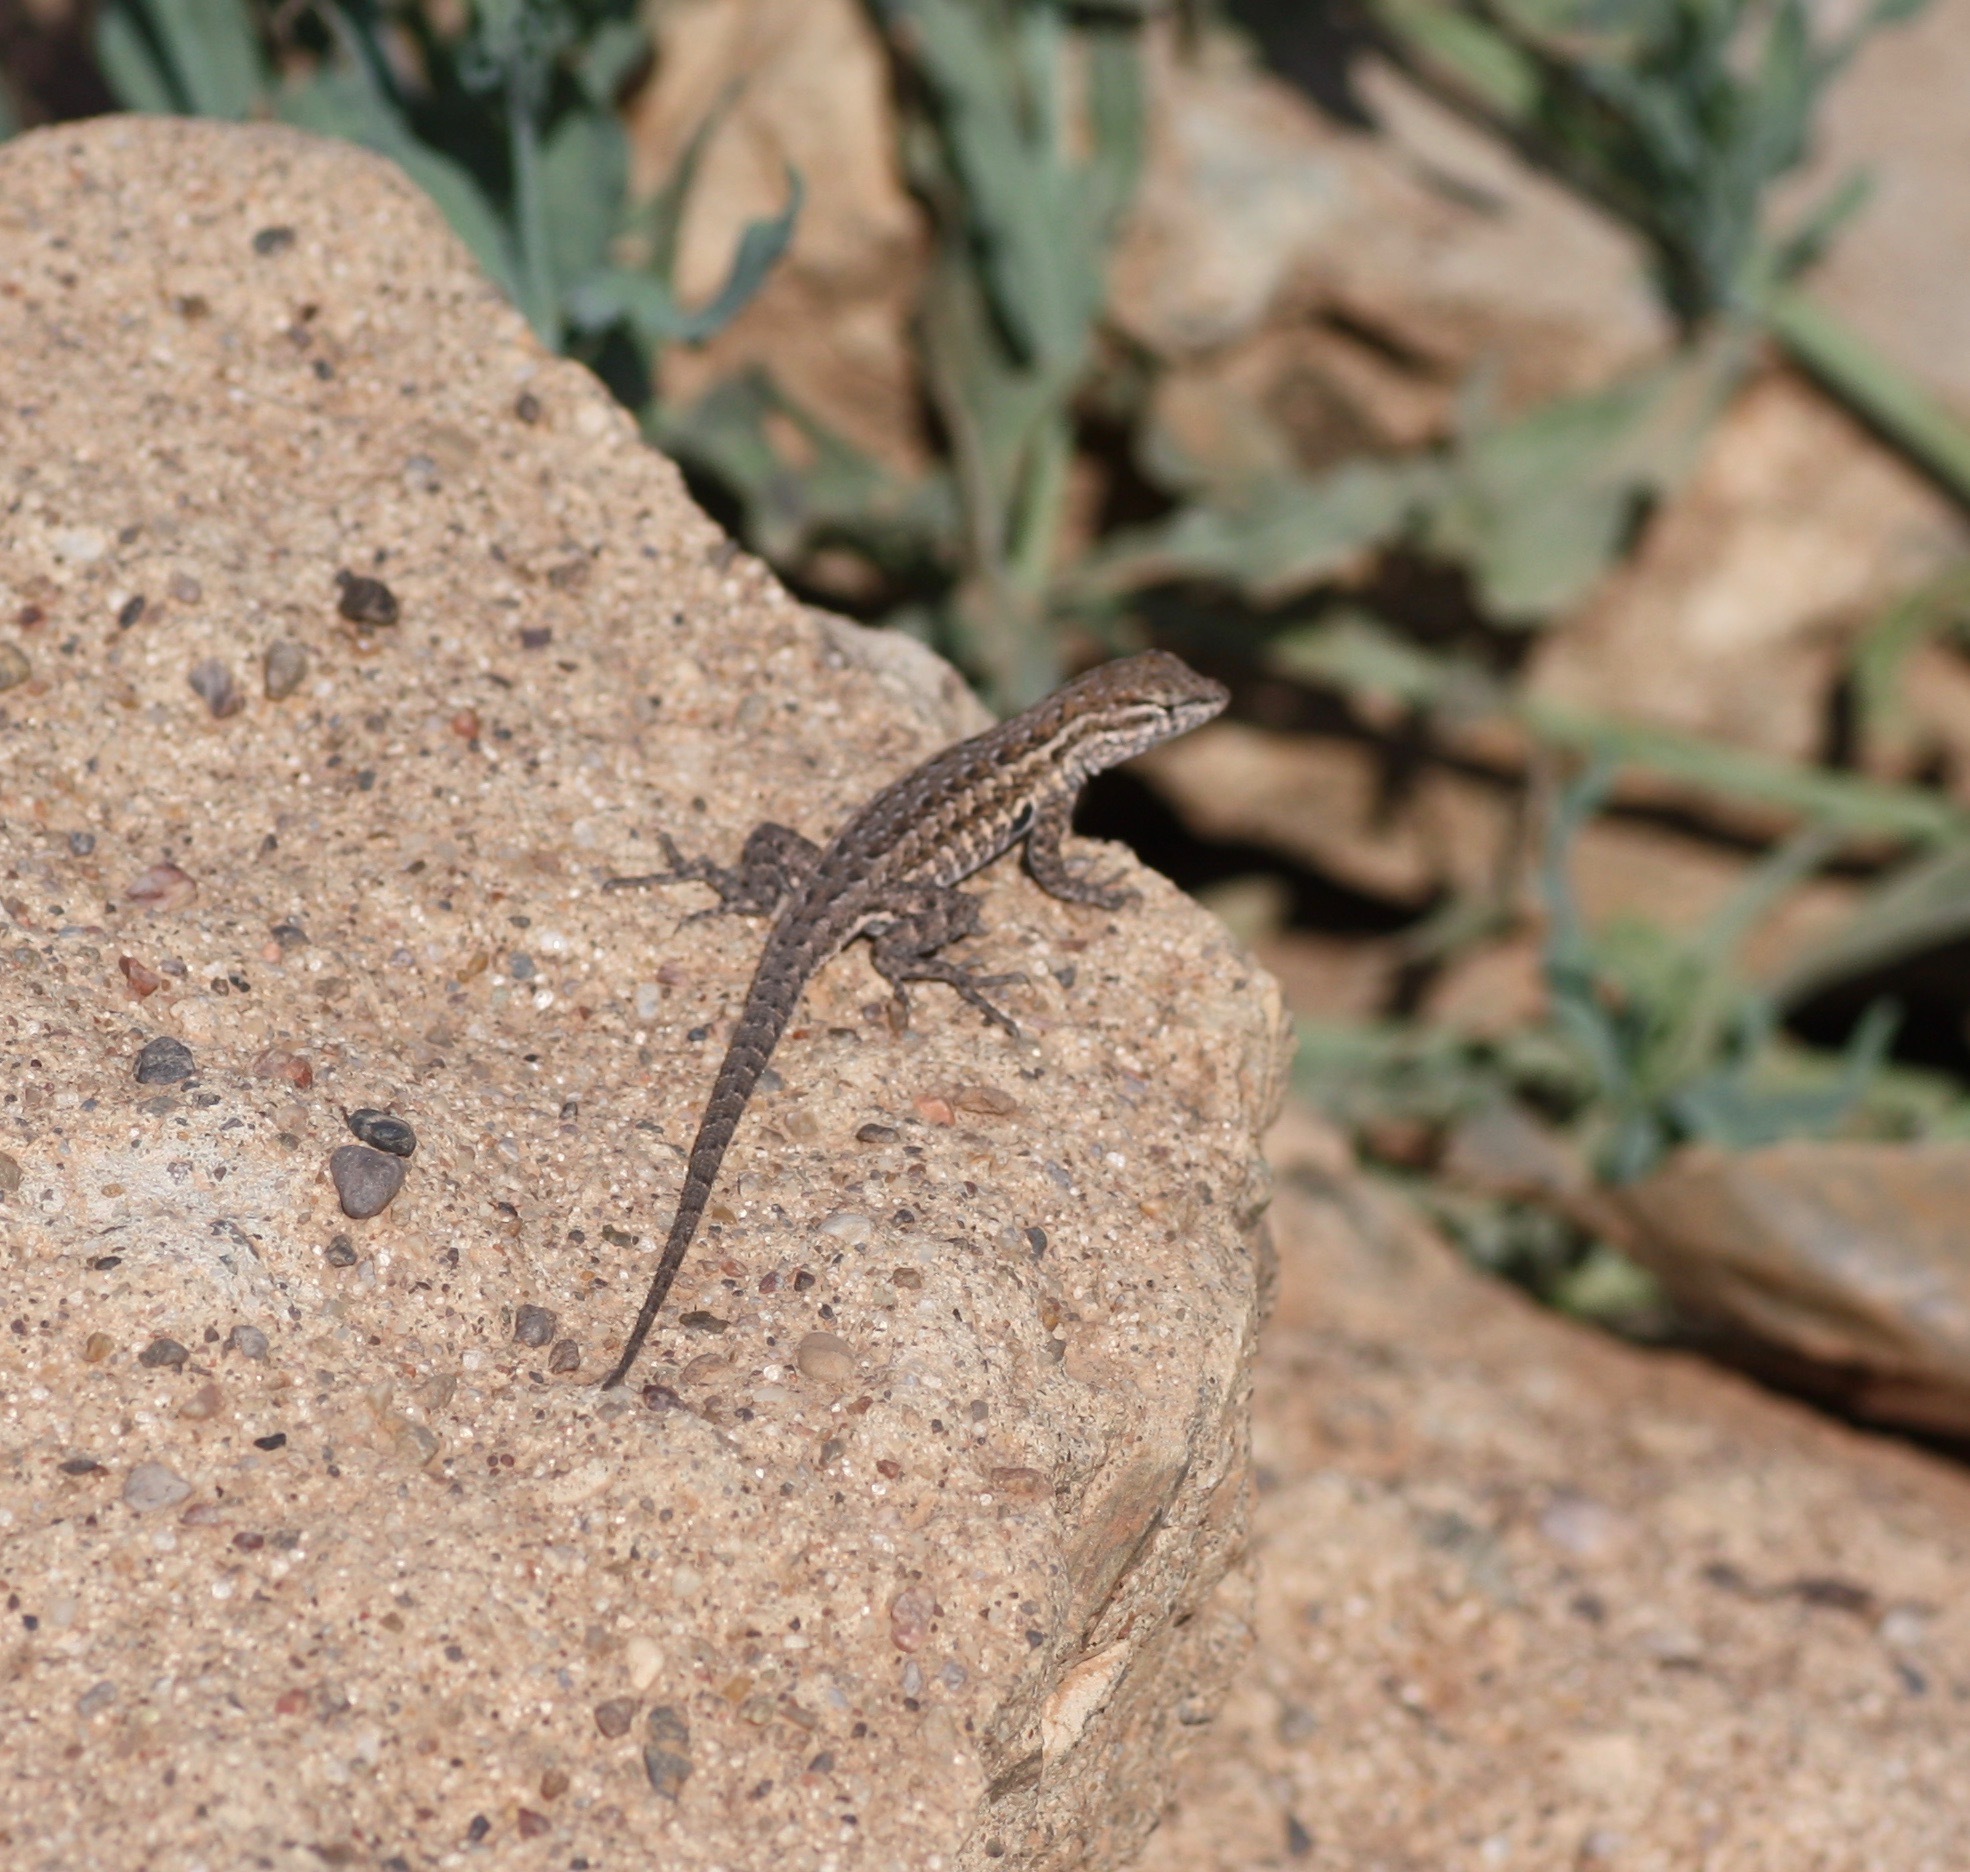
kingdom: Animalia
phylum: Chordata
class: Squamata
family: Phrynosomatidae
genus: Uta
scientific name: Uta stansburiana
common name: Side-blotched lizard
